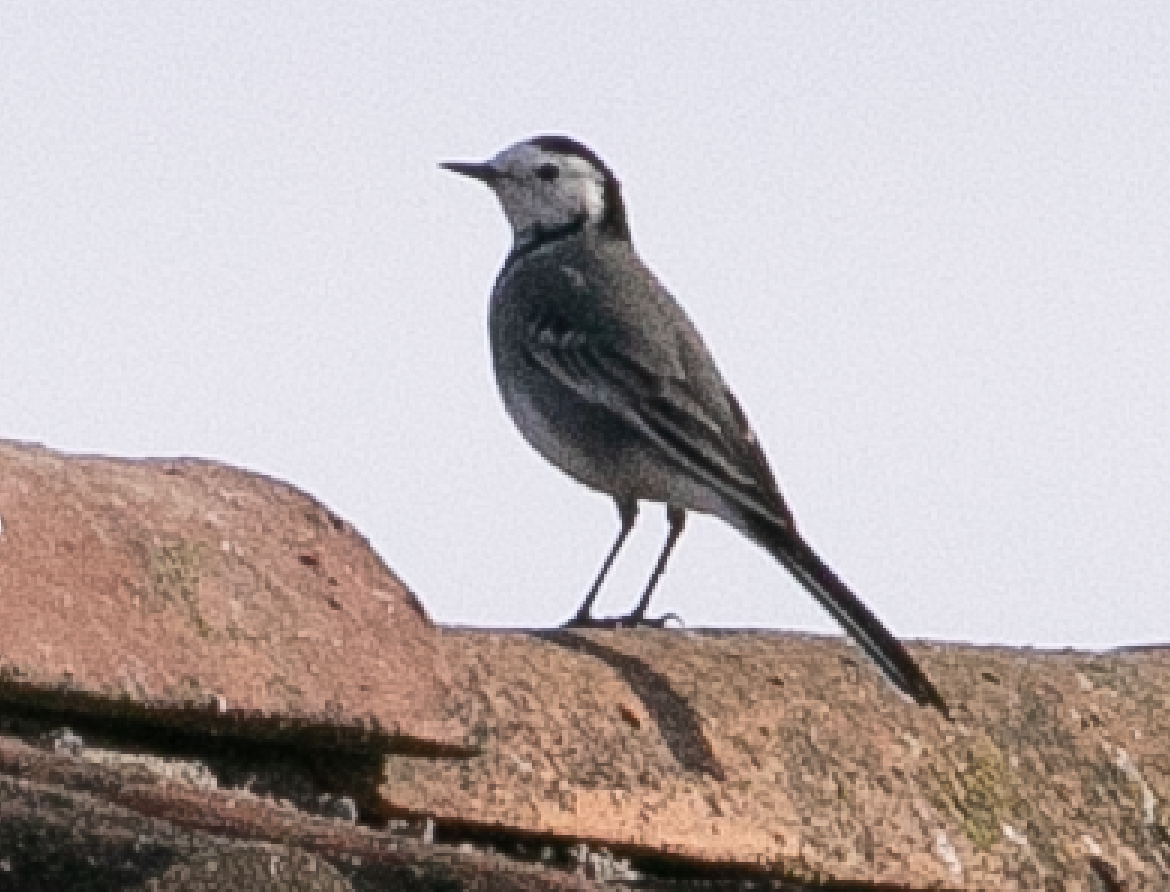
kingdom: Animalia
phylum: Chordata
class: Aves
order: Passeriformes
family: Motacillidae
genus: Motacilla
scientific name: Motacilla alba
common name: White wagtail
